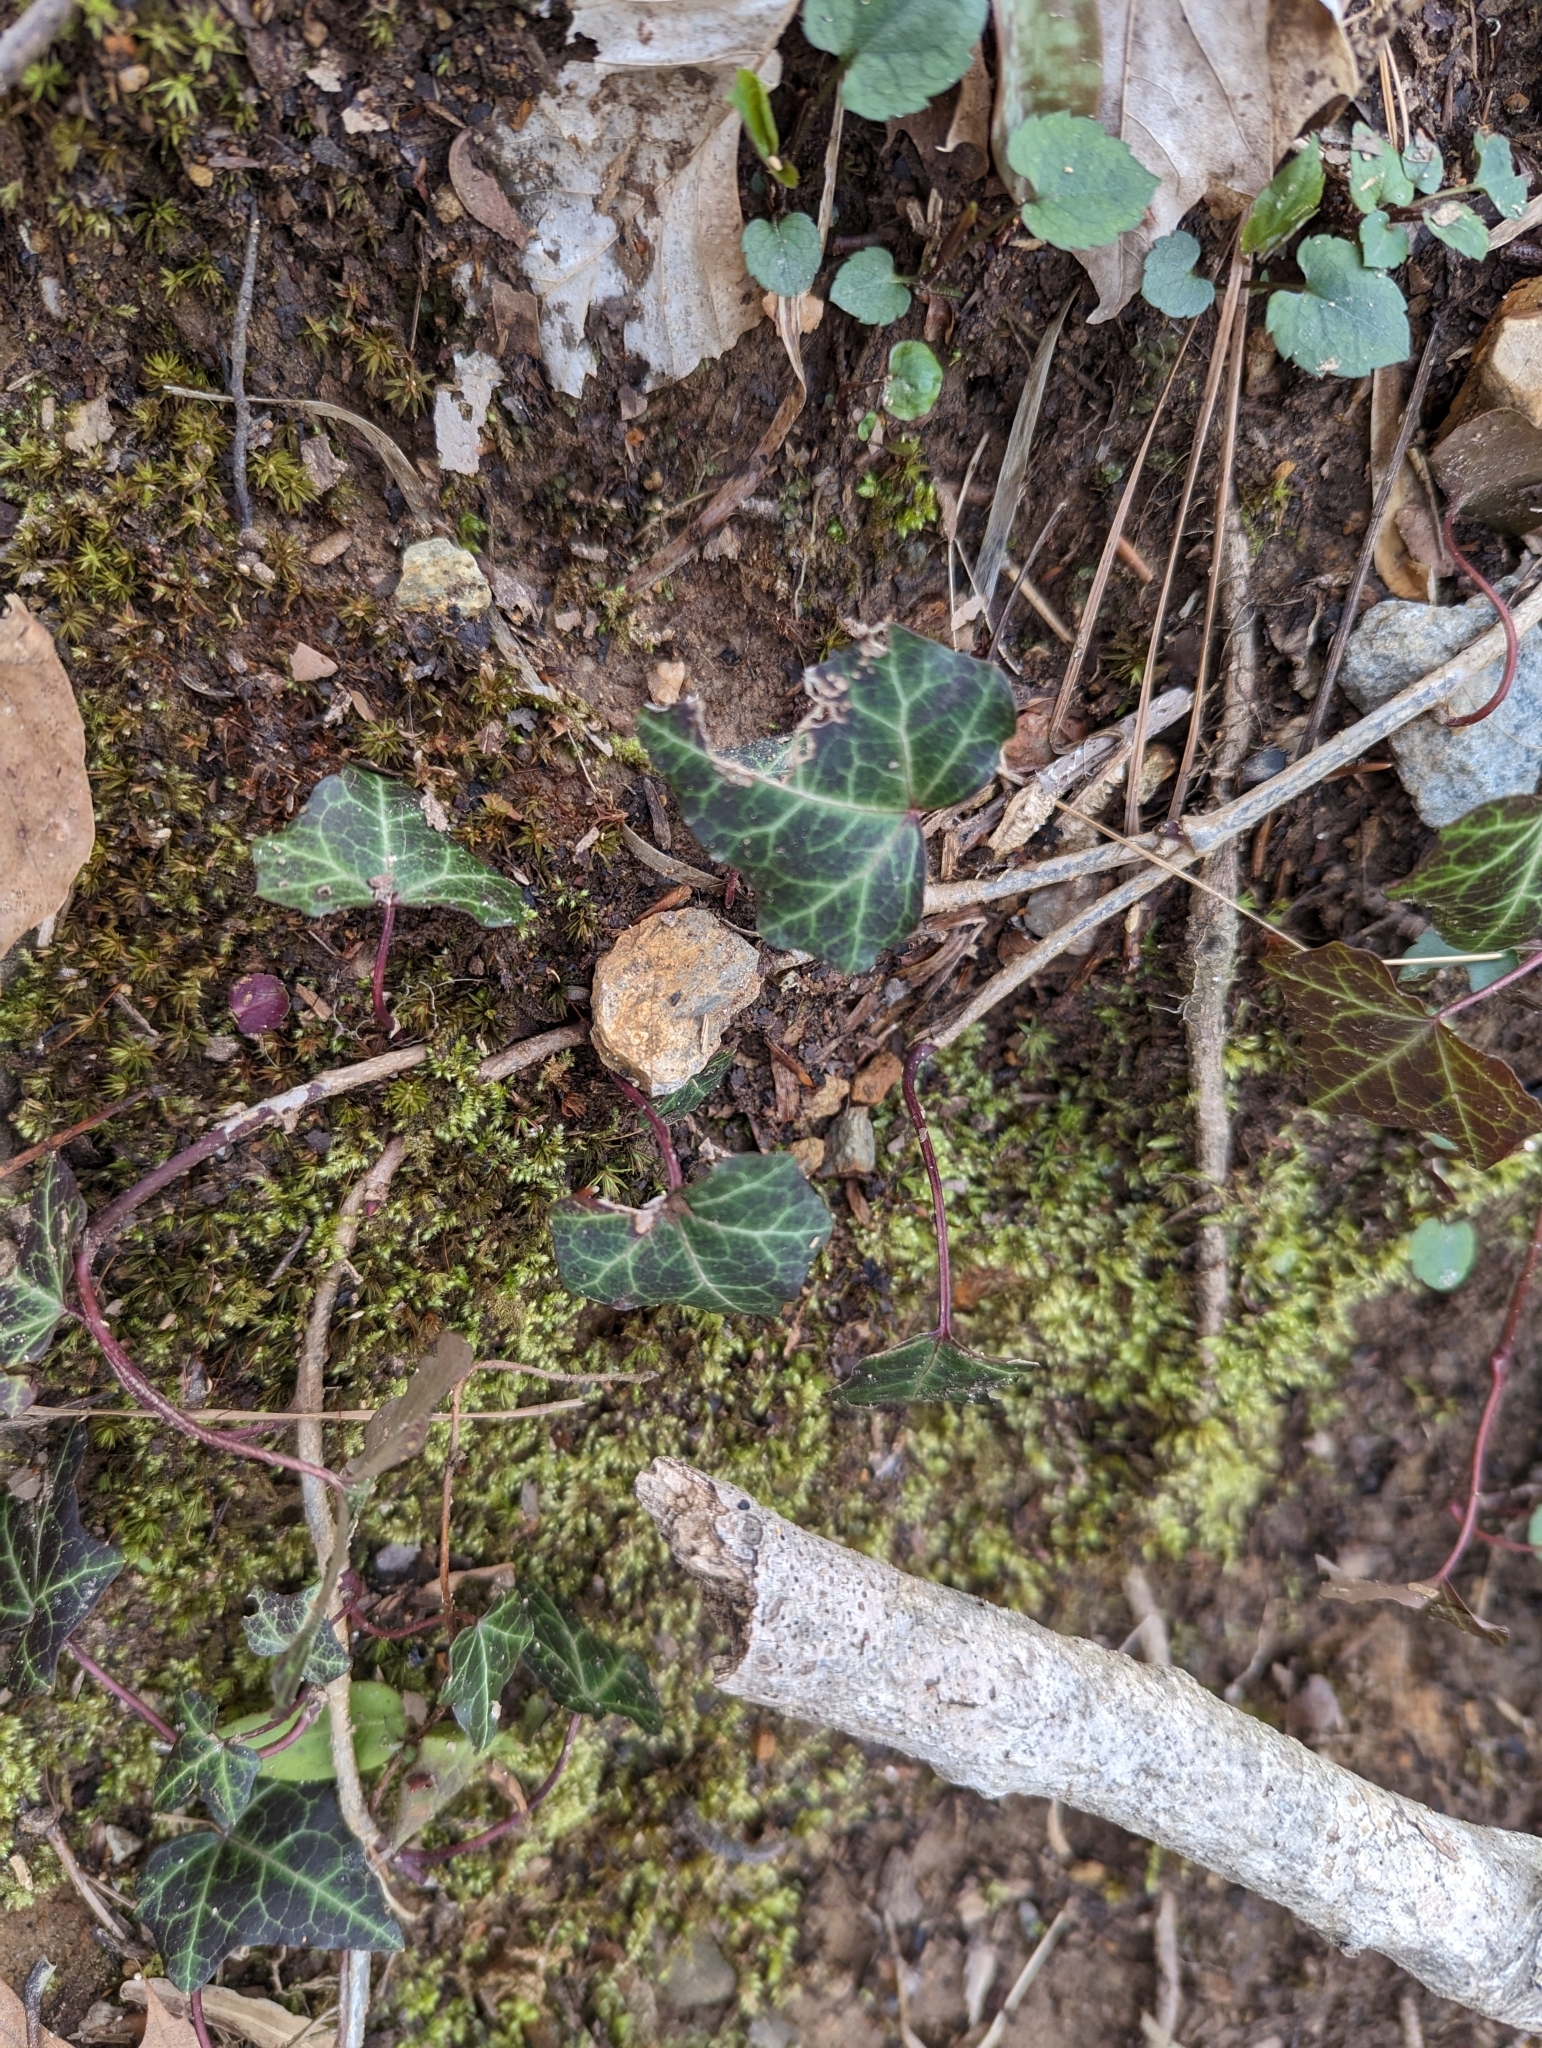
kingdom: Plantae
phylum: Tracheophyta
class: Magnoliopsida
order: Apiales
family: Araliaceae
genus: Hedera
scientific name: Hedera helix
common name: Ivy
